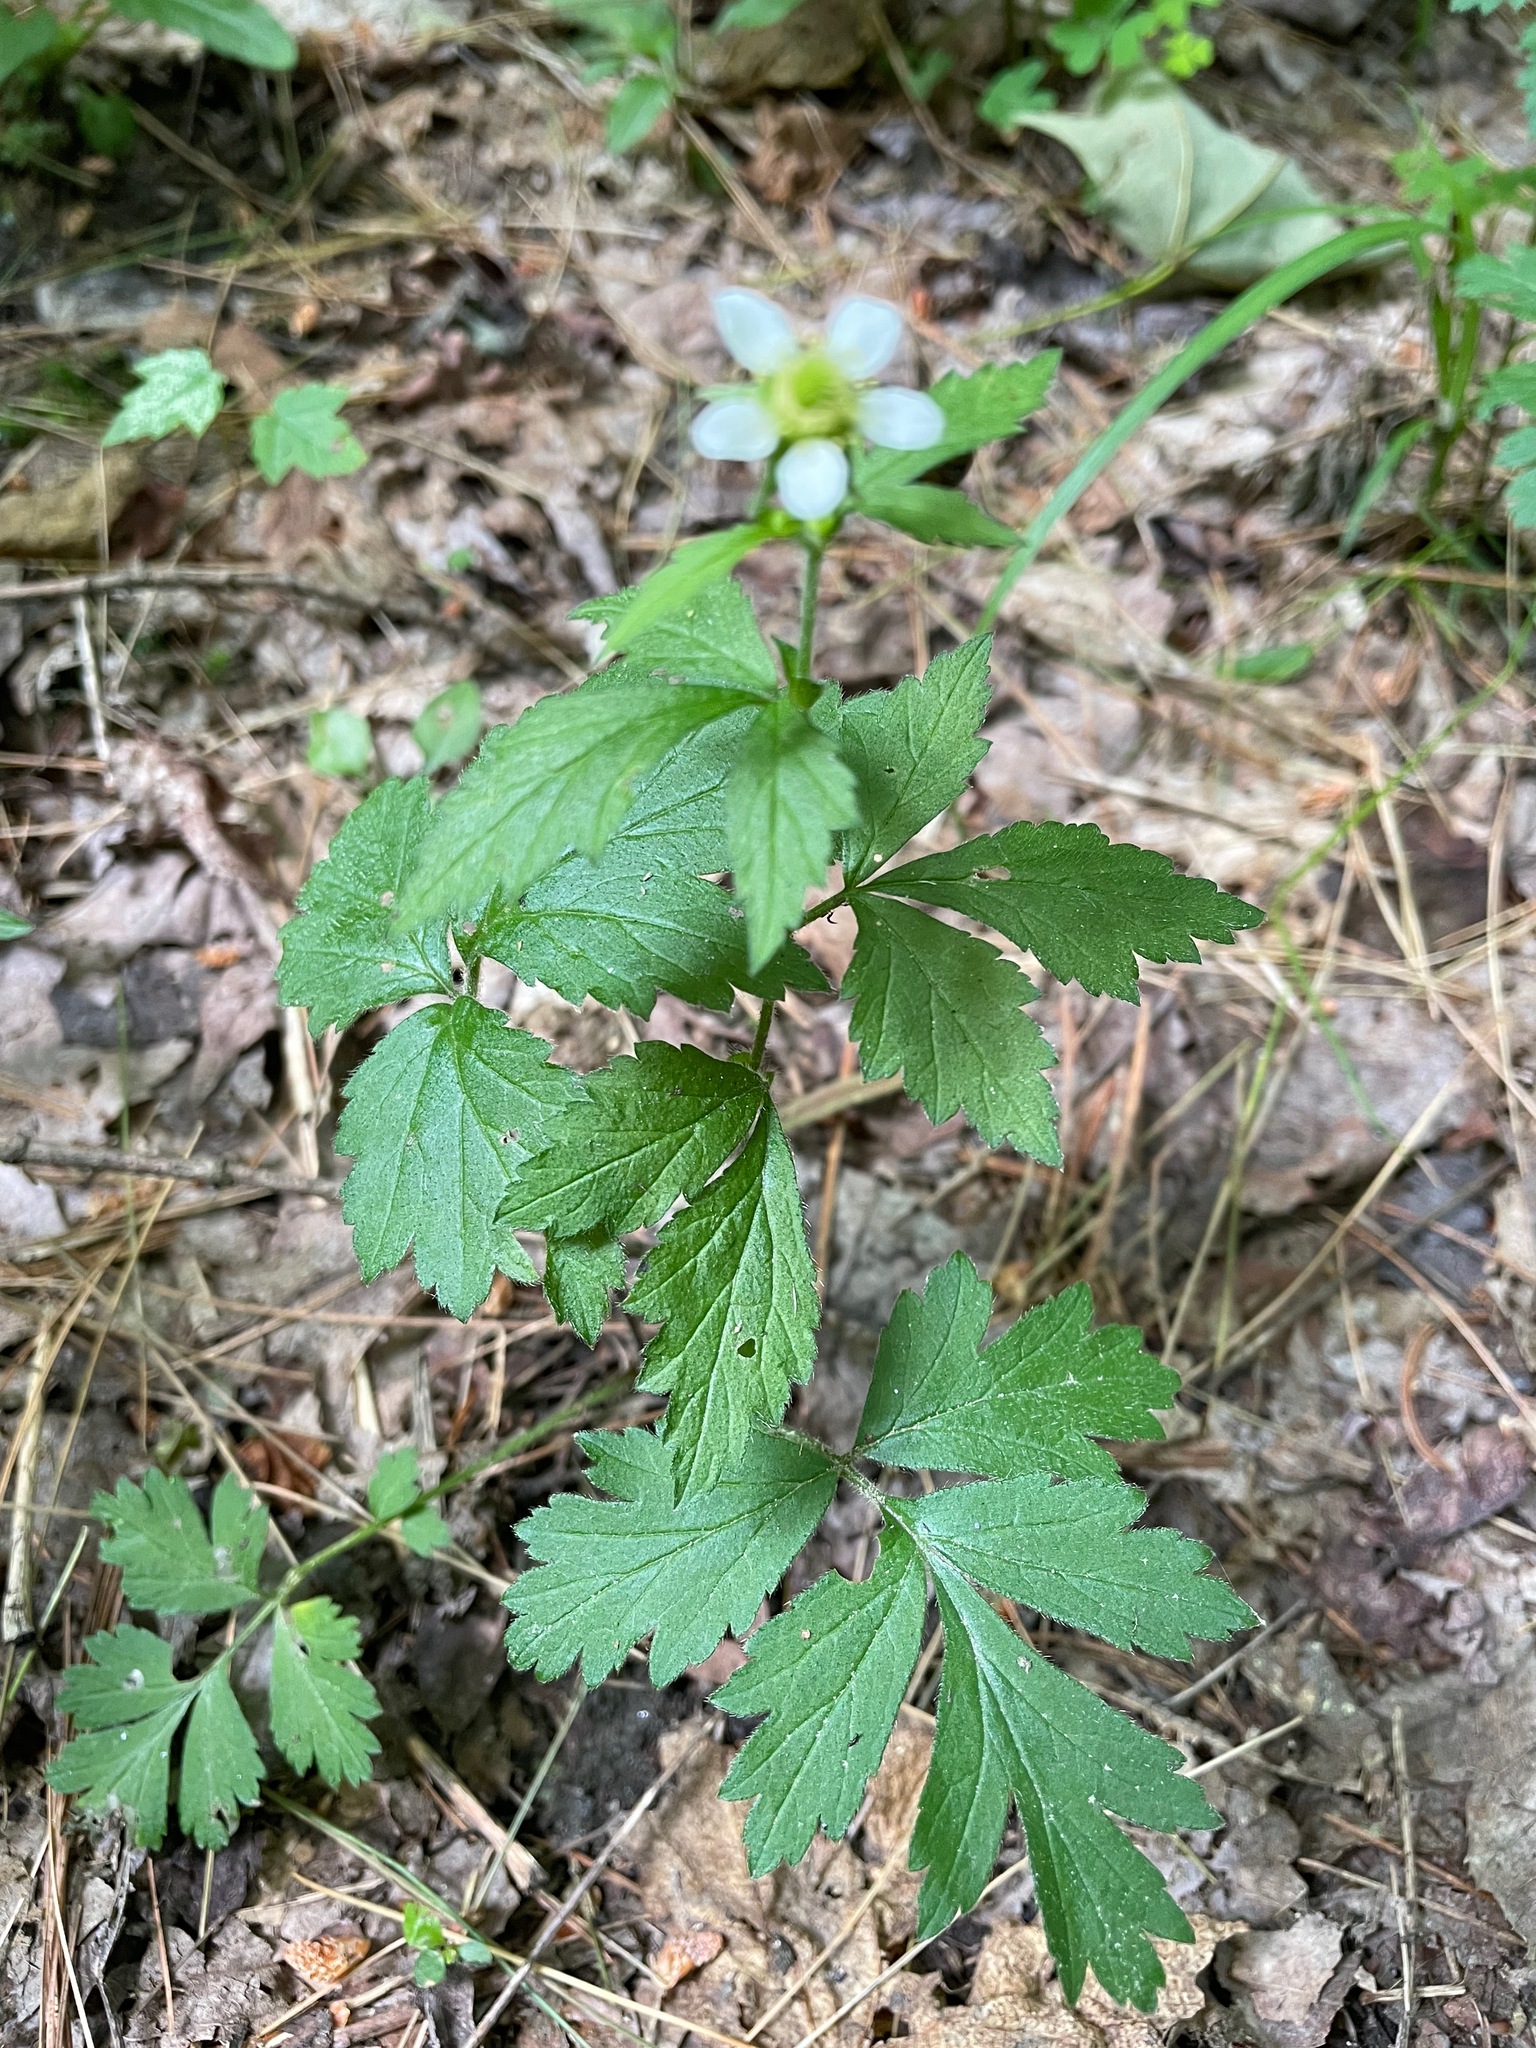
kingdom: Plantae
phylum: Tracheophyta
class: Magnoliopsida
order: Rosales
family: Rosaceae
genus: Geum
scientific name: Geum canadense
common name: White avens
